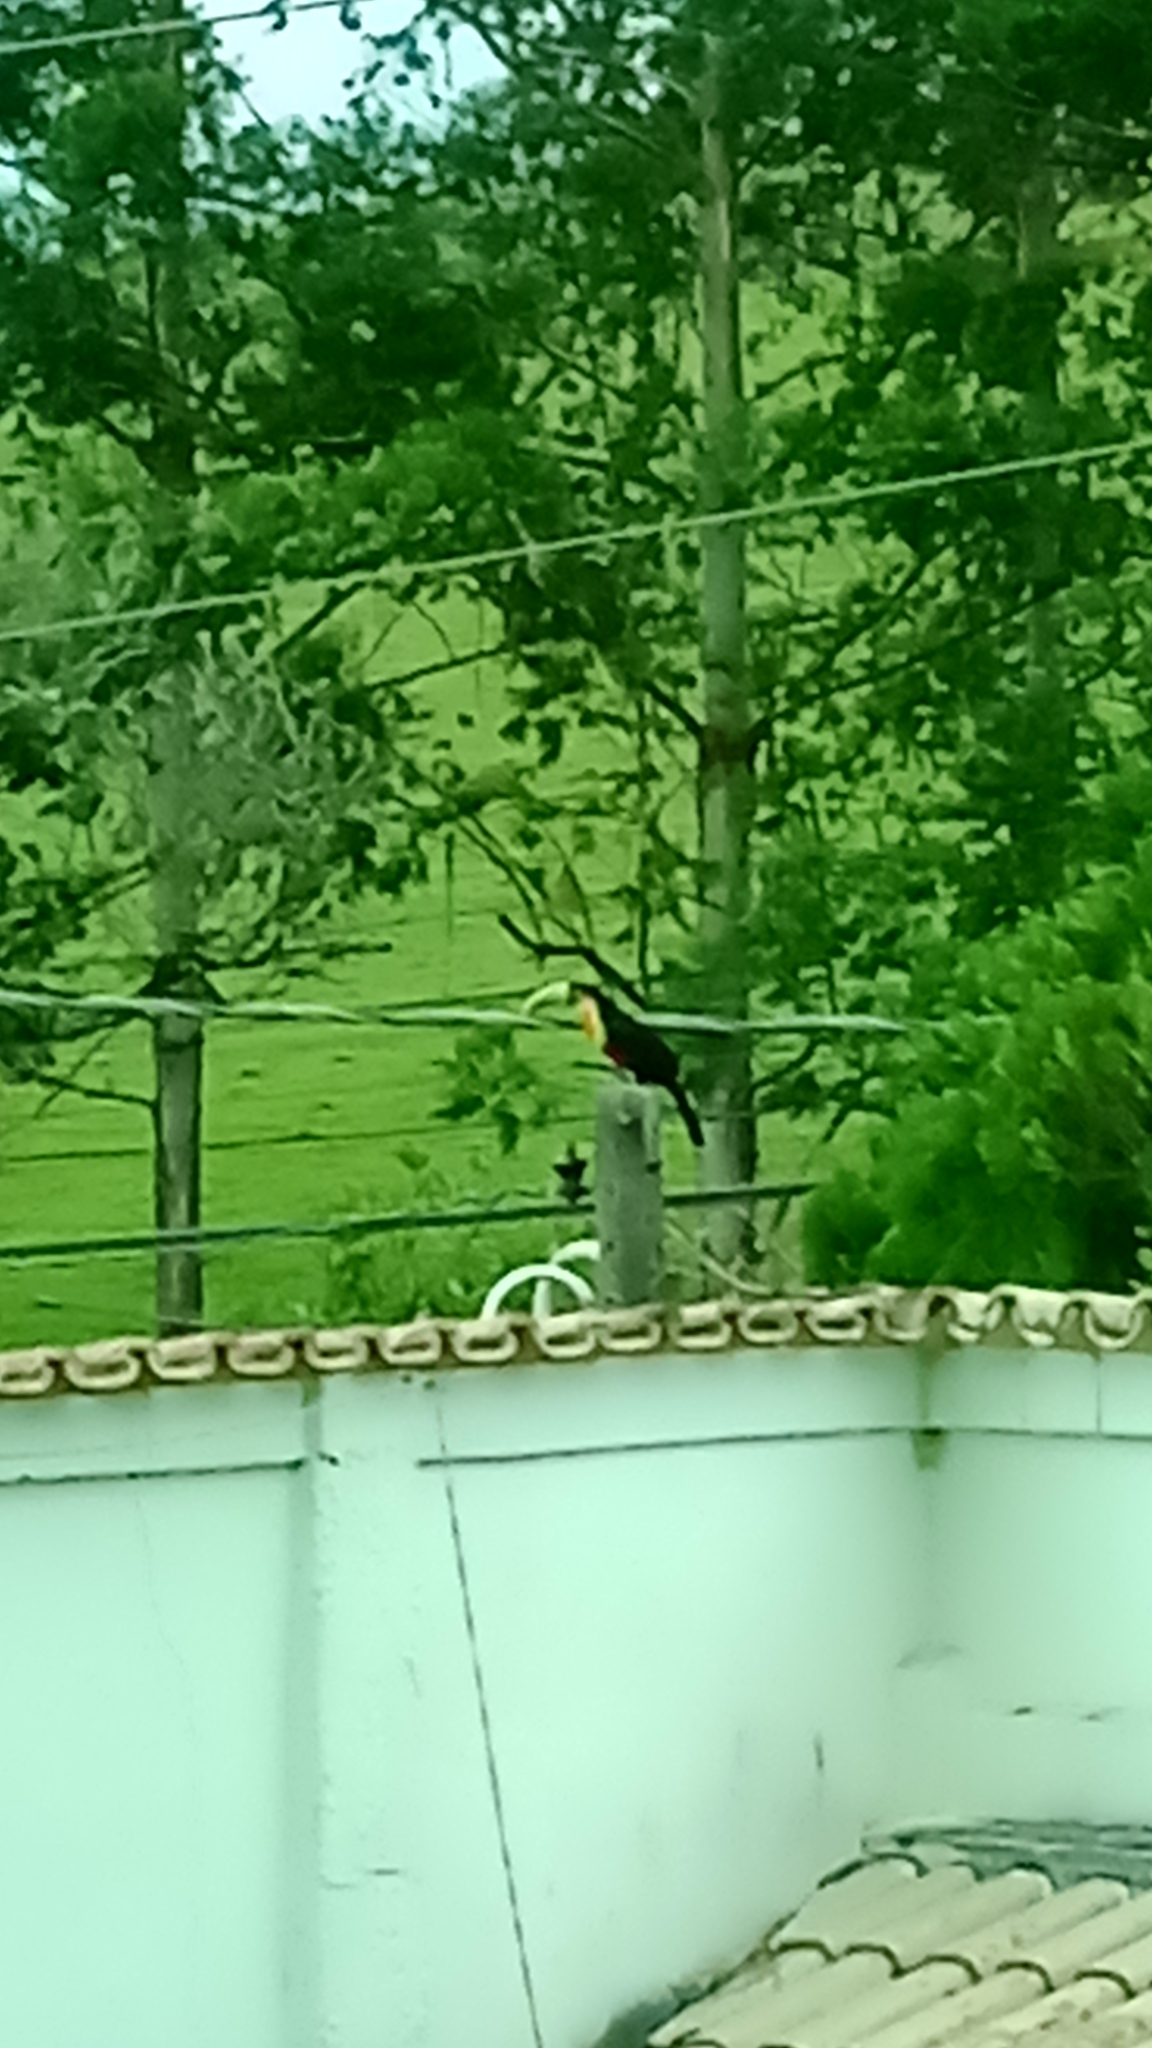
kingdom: Animalia
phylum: Chordata
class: Aves
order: Piciformes
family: Ramphastidae
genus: Ramphastos
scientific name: Ramphastos dicolorus
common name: Green-billed toucan
